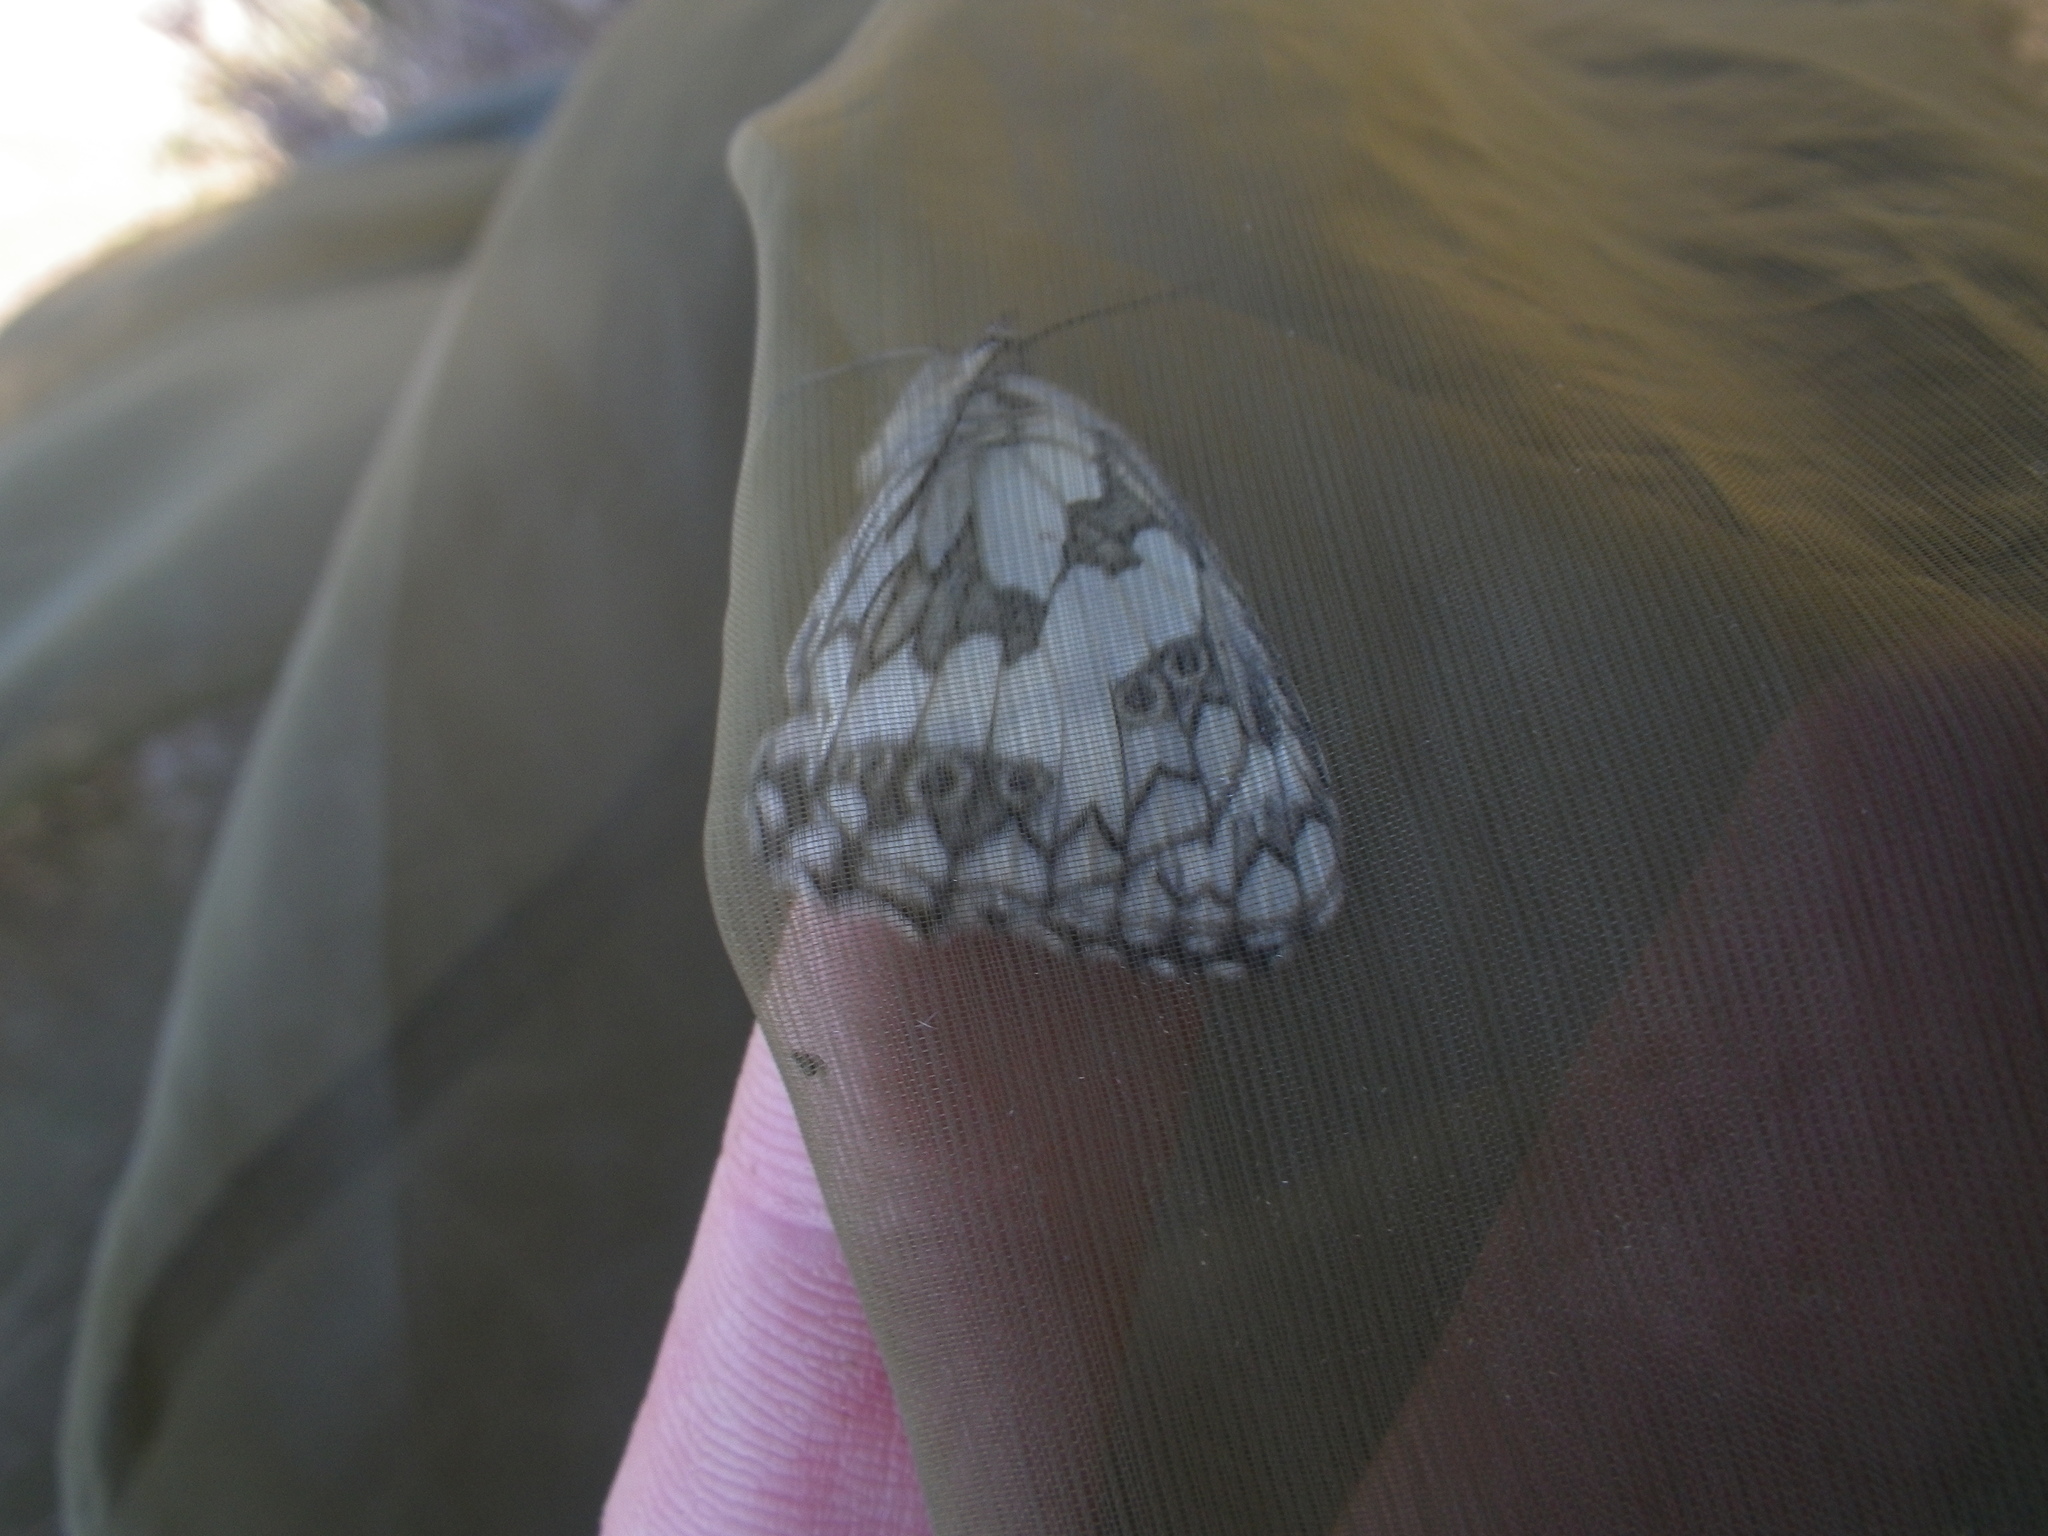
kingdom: Animalia
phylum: Arthropoda
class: Insecta
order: Lepidoptera
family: Nymphalidae
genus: Melanargia
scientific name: Melanargia galathea
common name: Marbled white
